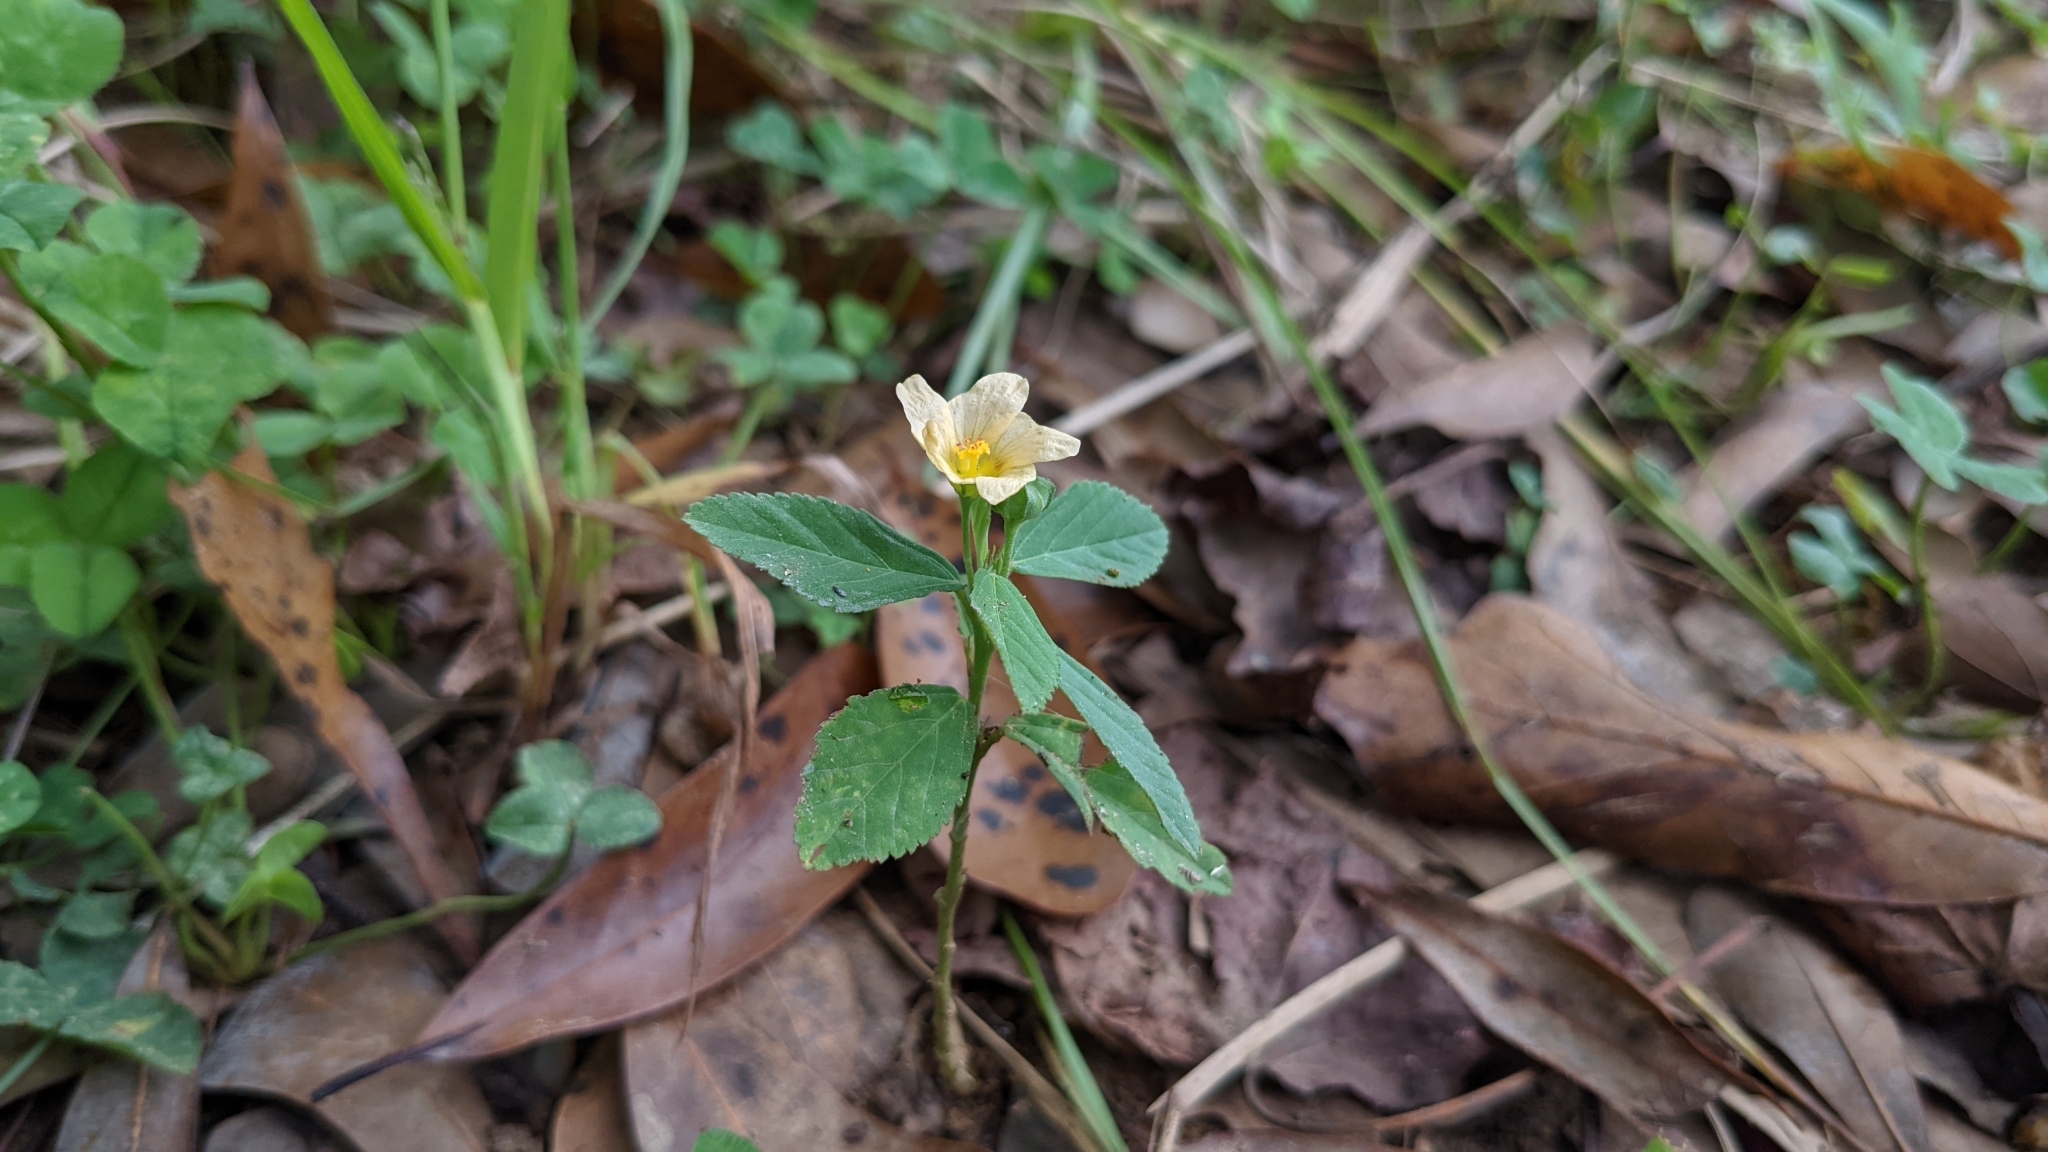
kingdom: Plantae
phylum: Tracheophyta
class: Magnoliopsida
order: Malvales
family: Malvaceae
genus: Sida
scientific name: Sida rhombifolia
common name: Queensland-hemp
